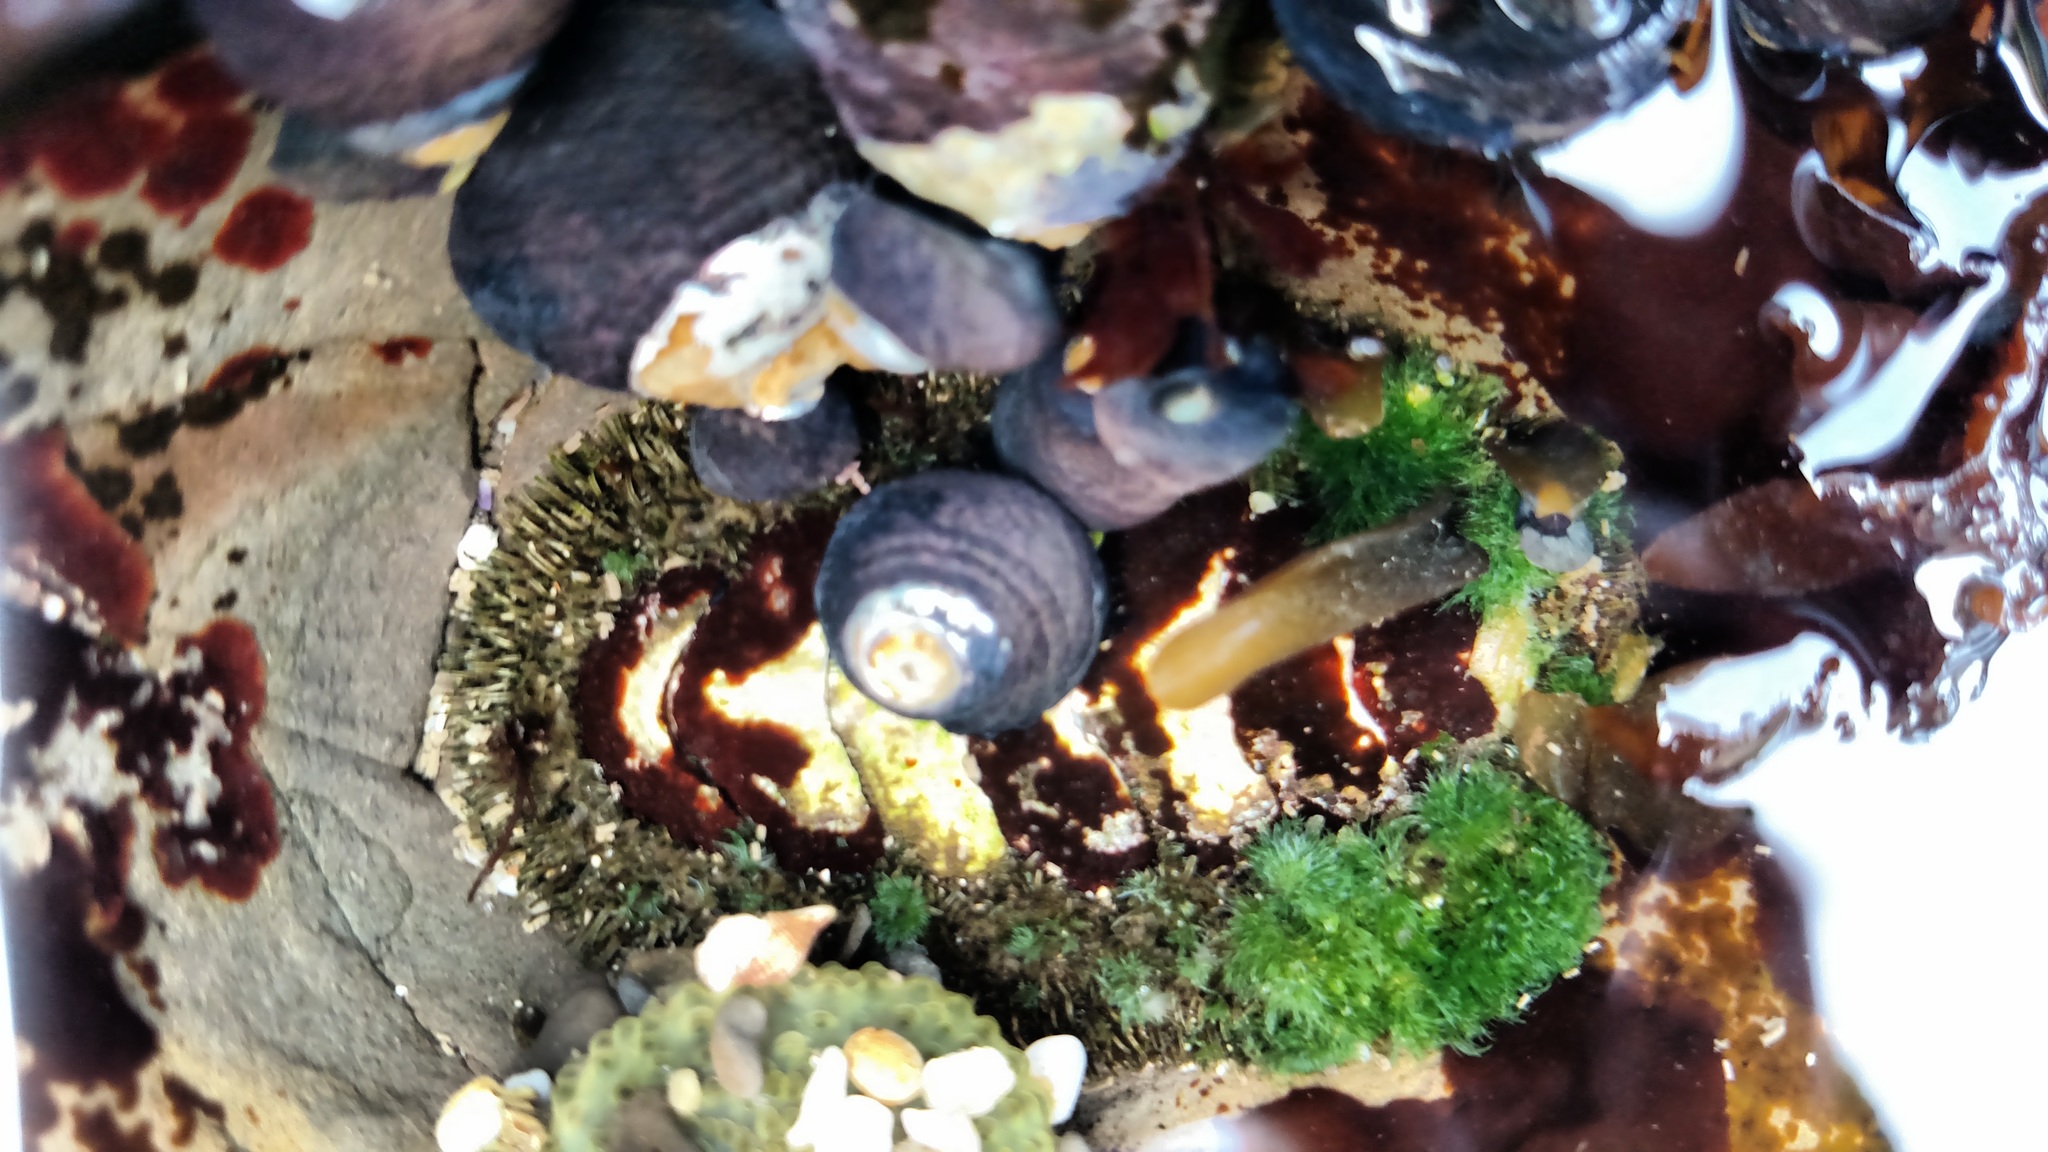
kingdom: Animalia
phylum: Mollusca
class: Polyplacophora
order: Chitonida
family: Mopaliidae
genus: Mopalia
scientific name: Mopalia muscosa
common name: Mossy chiton
